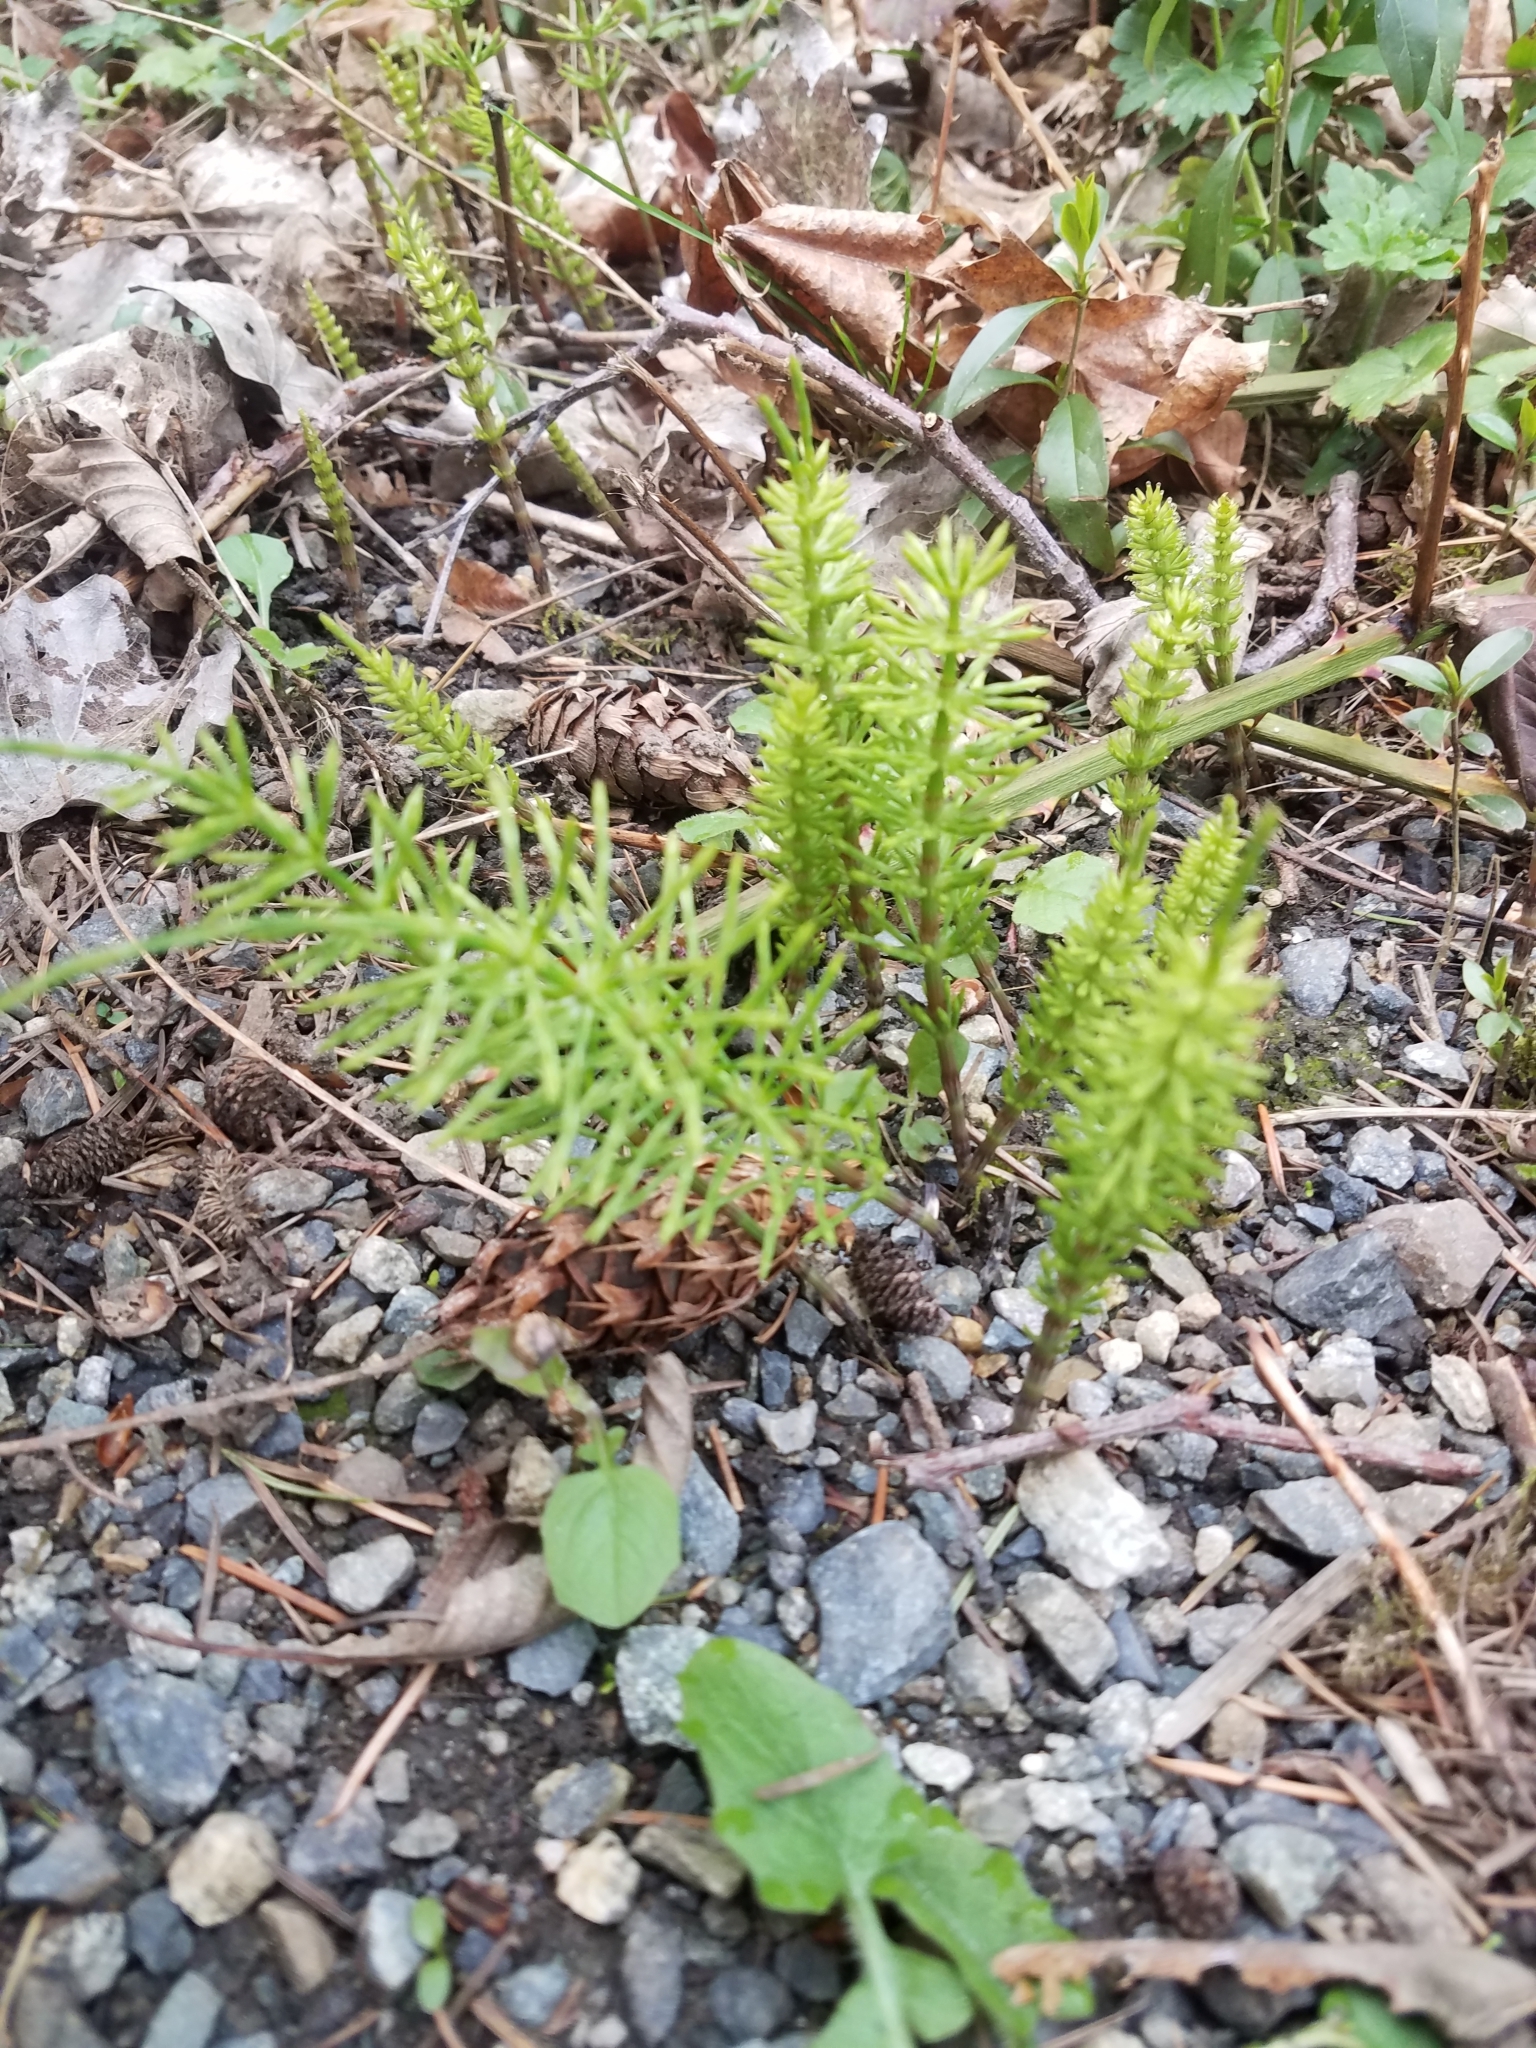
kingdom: Plantae
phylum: Tracheophyta
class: Polypodiopsida
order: Equisetales
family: Equisetaceae
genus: Equisetum
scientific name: Equisetum arvense
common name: Field horsetail
